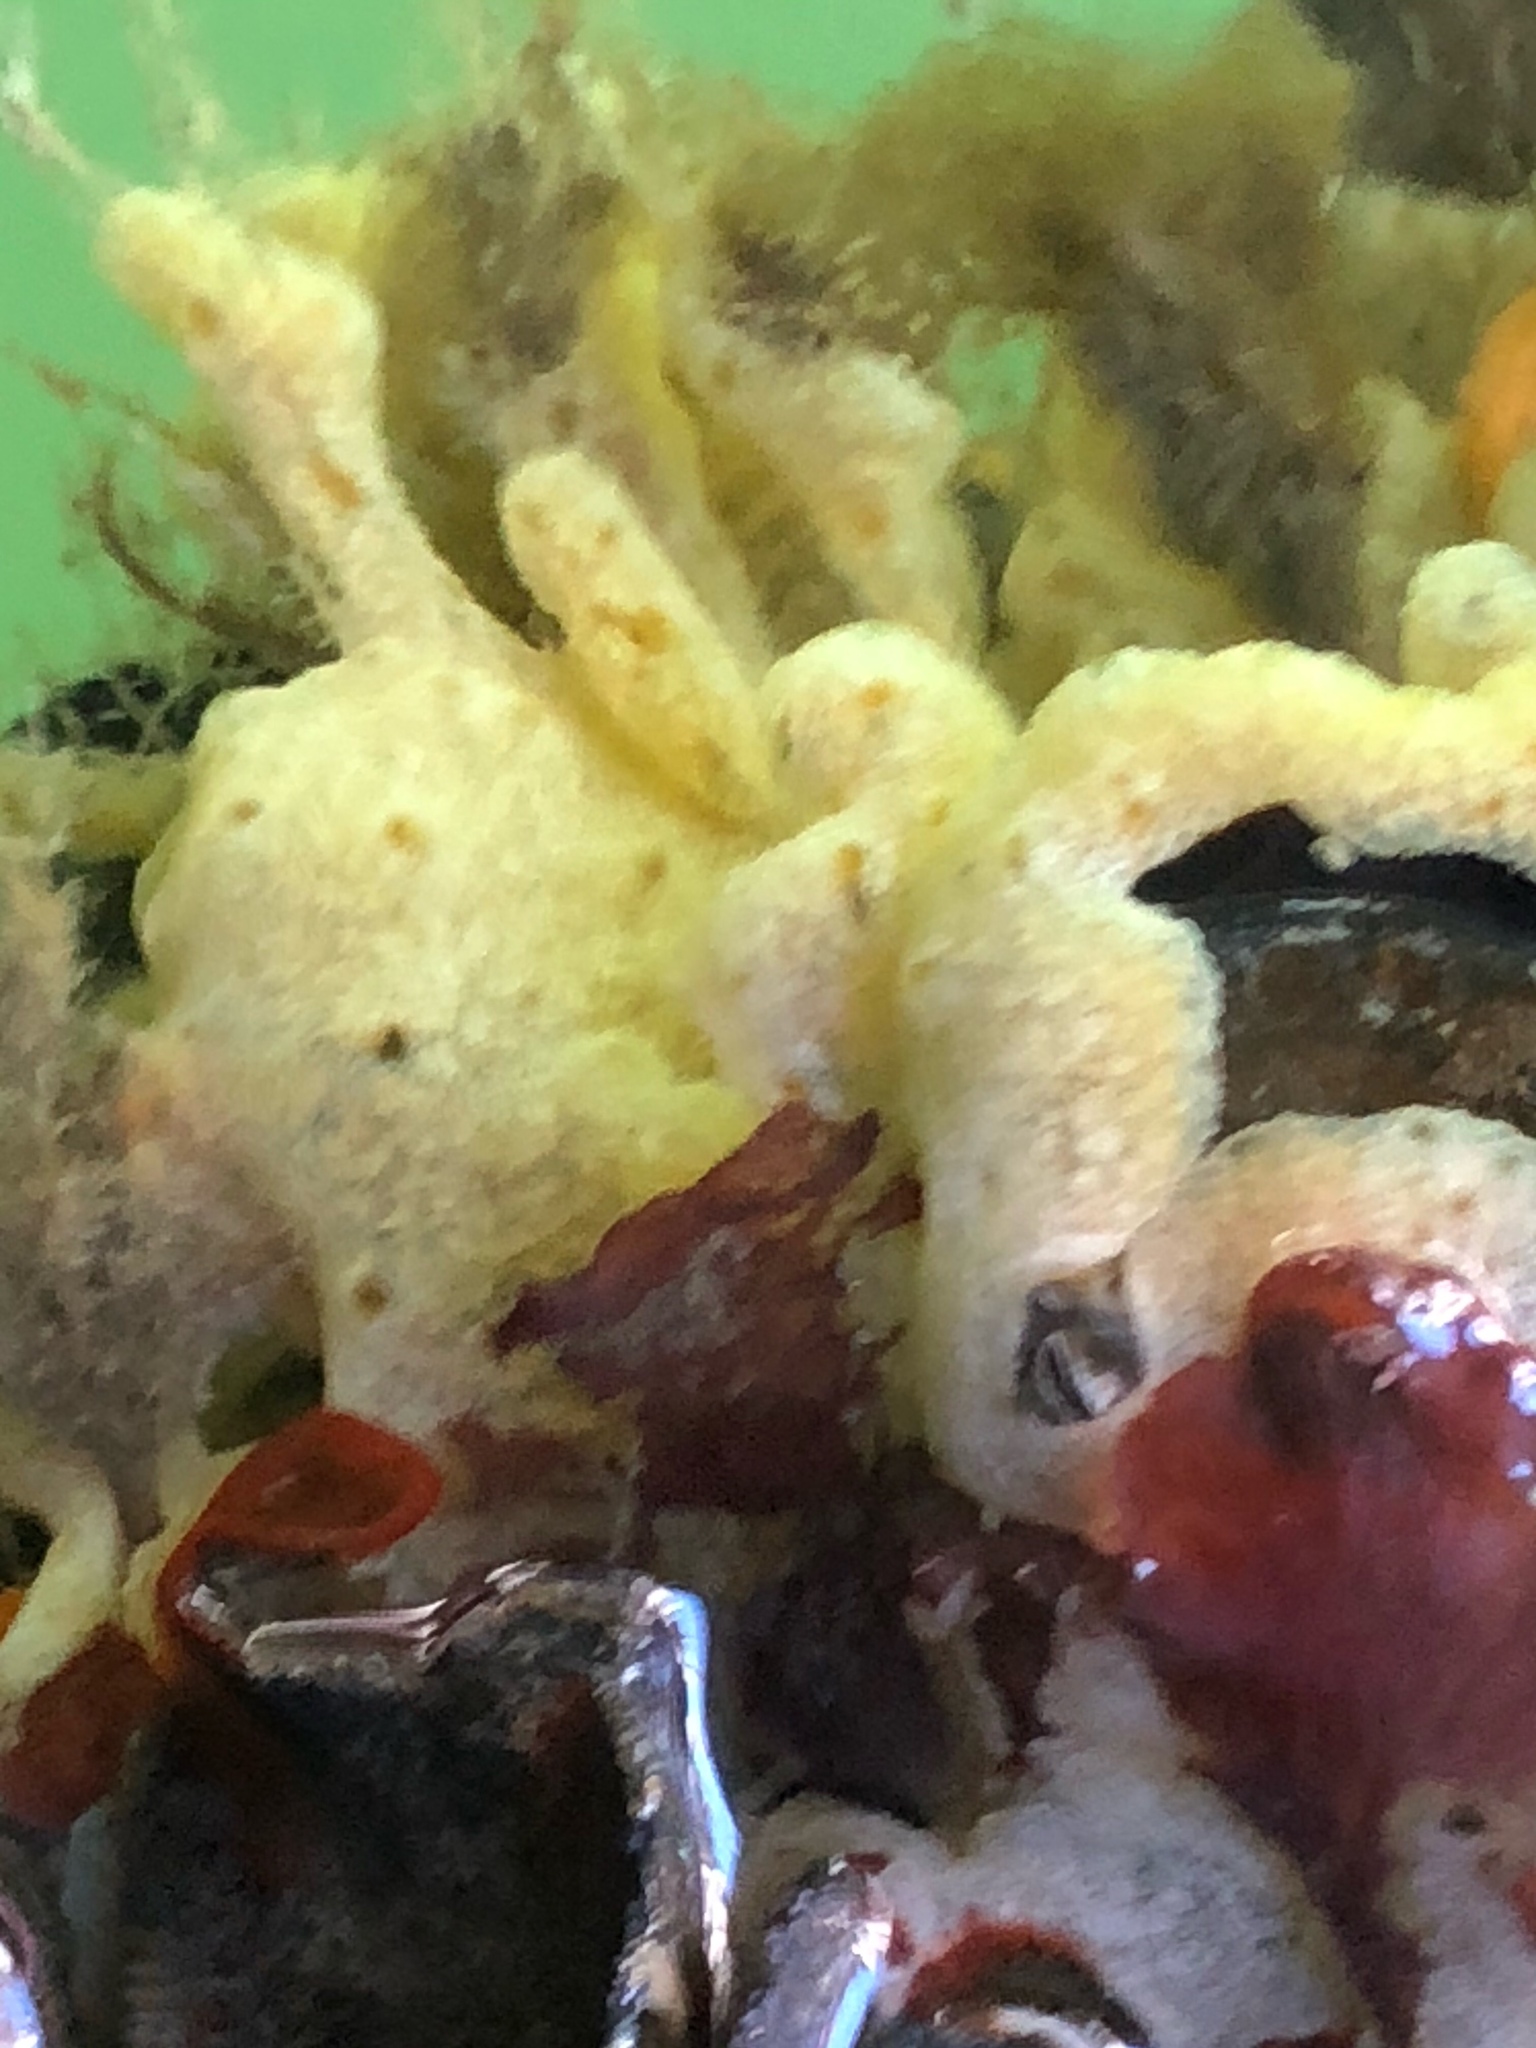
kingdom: Animalia
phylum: Chordata
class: Ascidiacea
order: Aplousobranchia
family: Didemnidae
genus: Didemnum
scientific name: Didemnum vexillum
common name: Compound sea squirt
